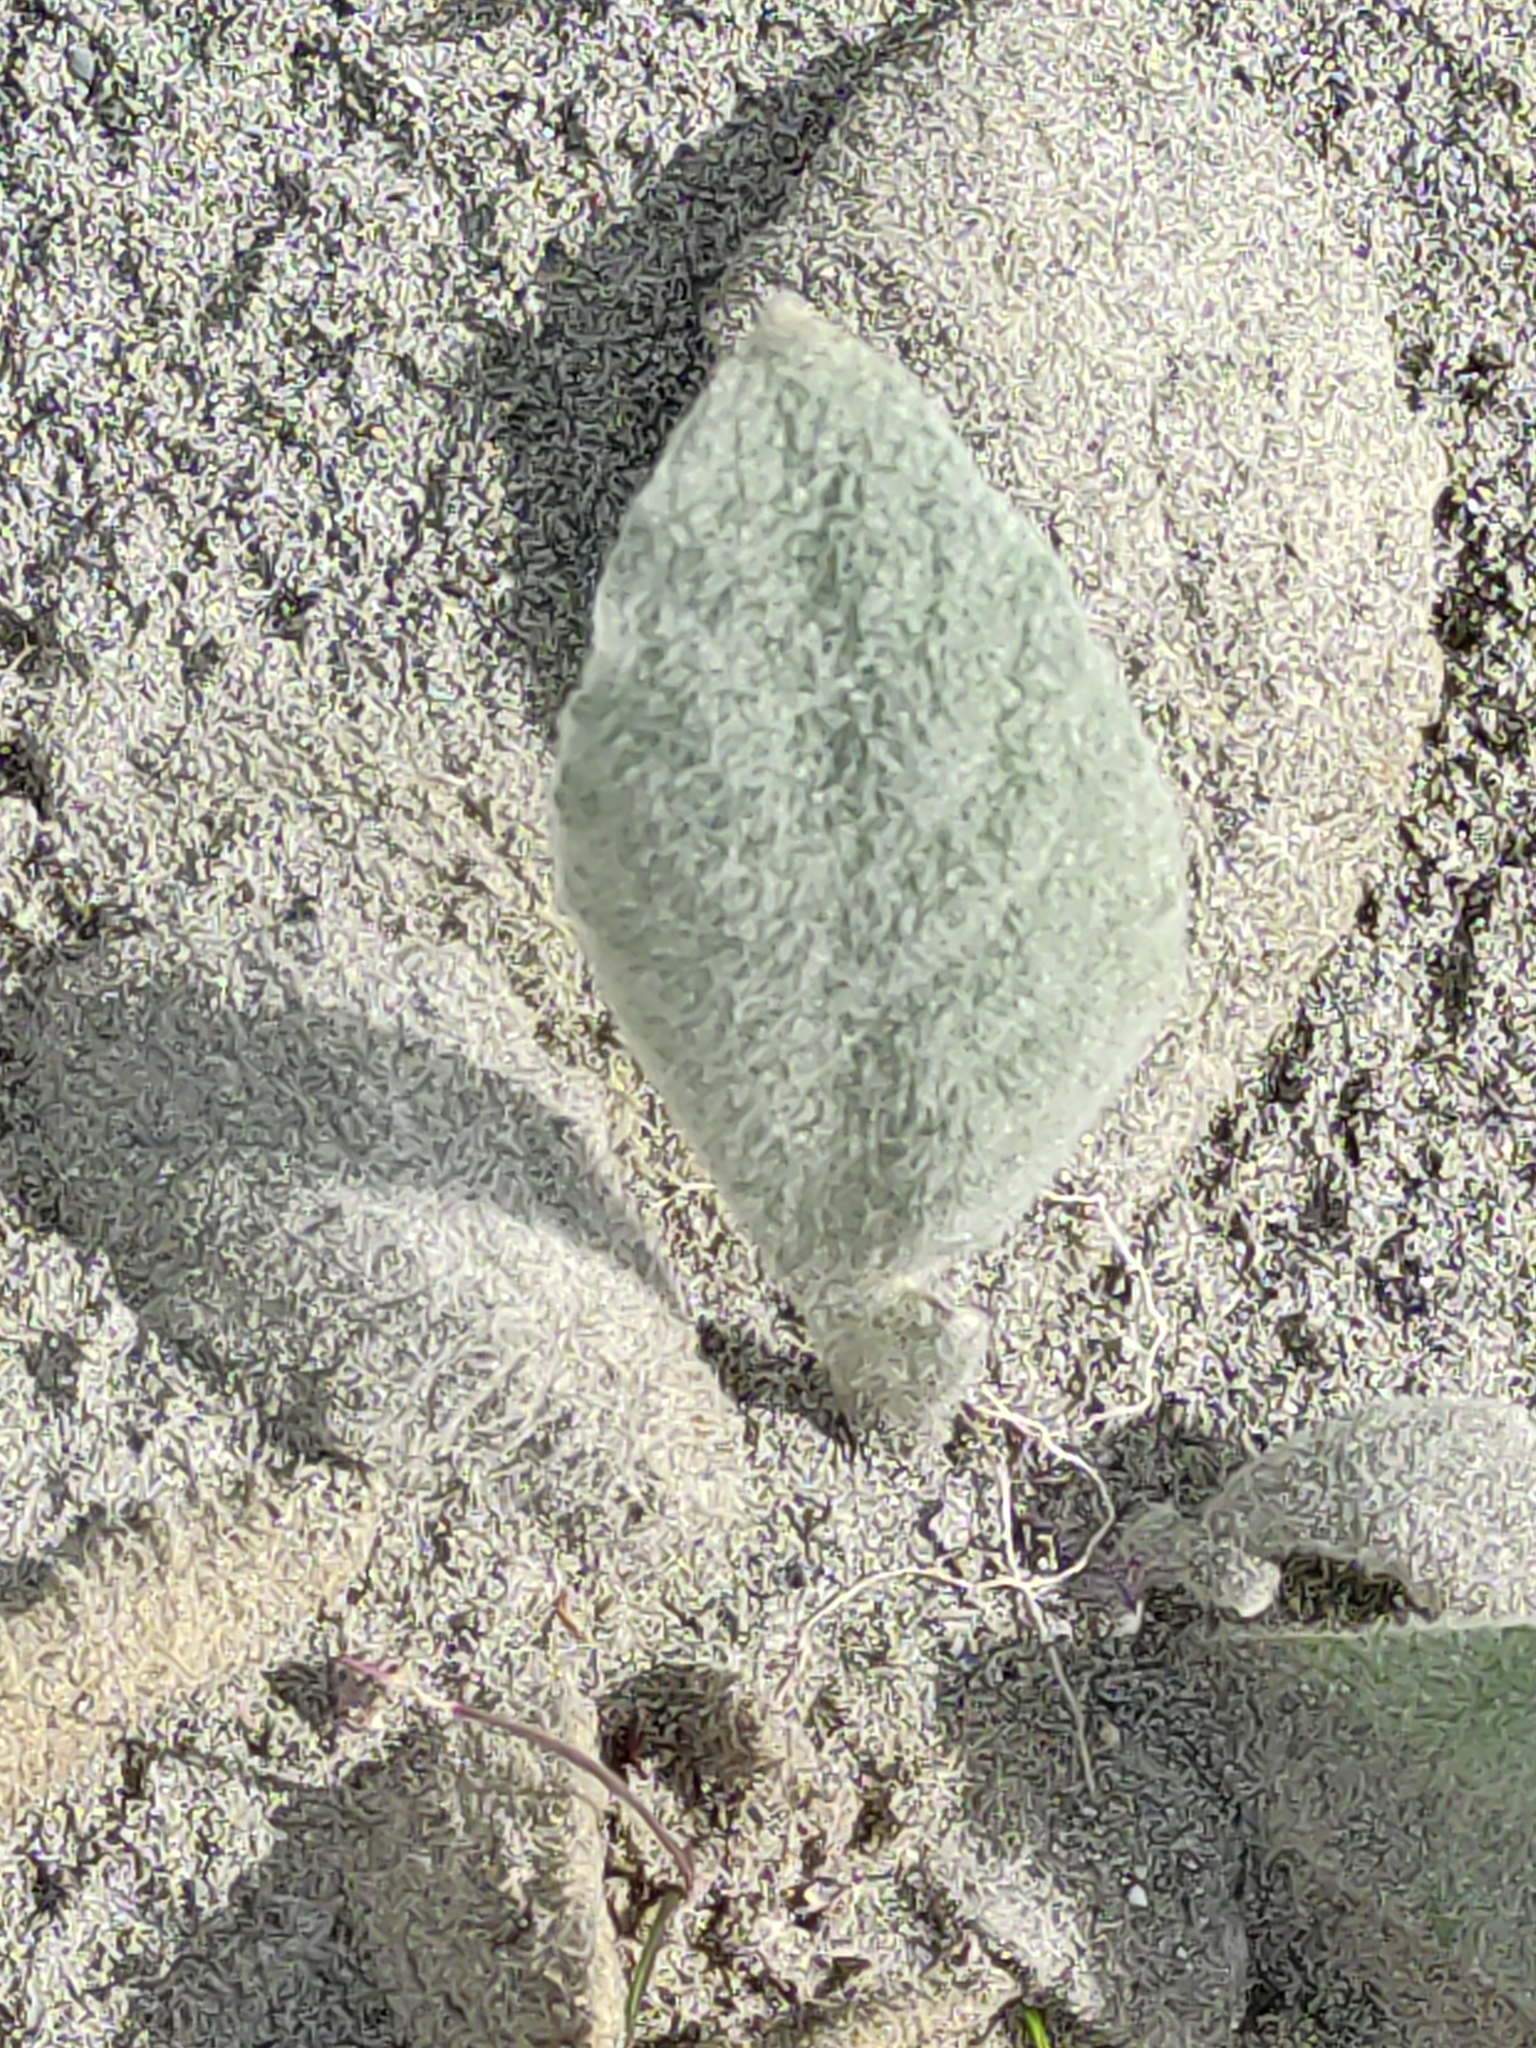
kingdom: Plantae
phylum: Tracheophyta
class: Magnoliopsida
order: Lamiales
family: Scrophulariaceae
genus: Verbascum
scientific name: Verbascum thapsus
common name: Common mullein
